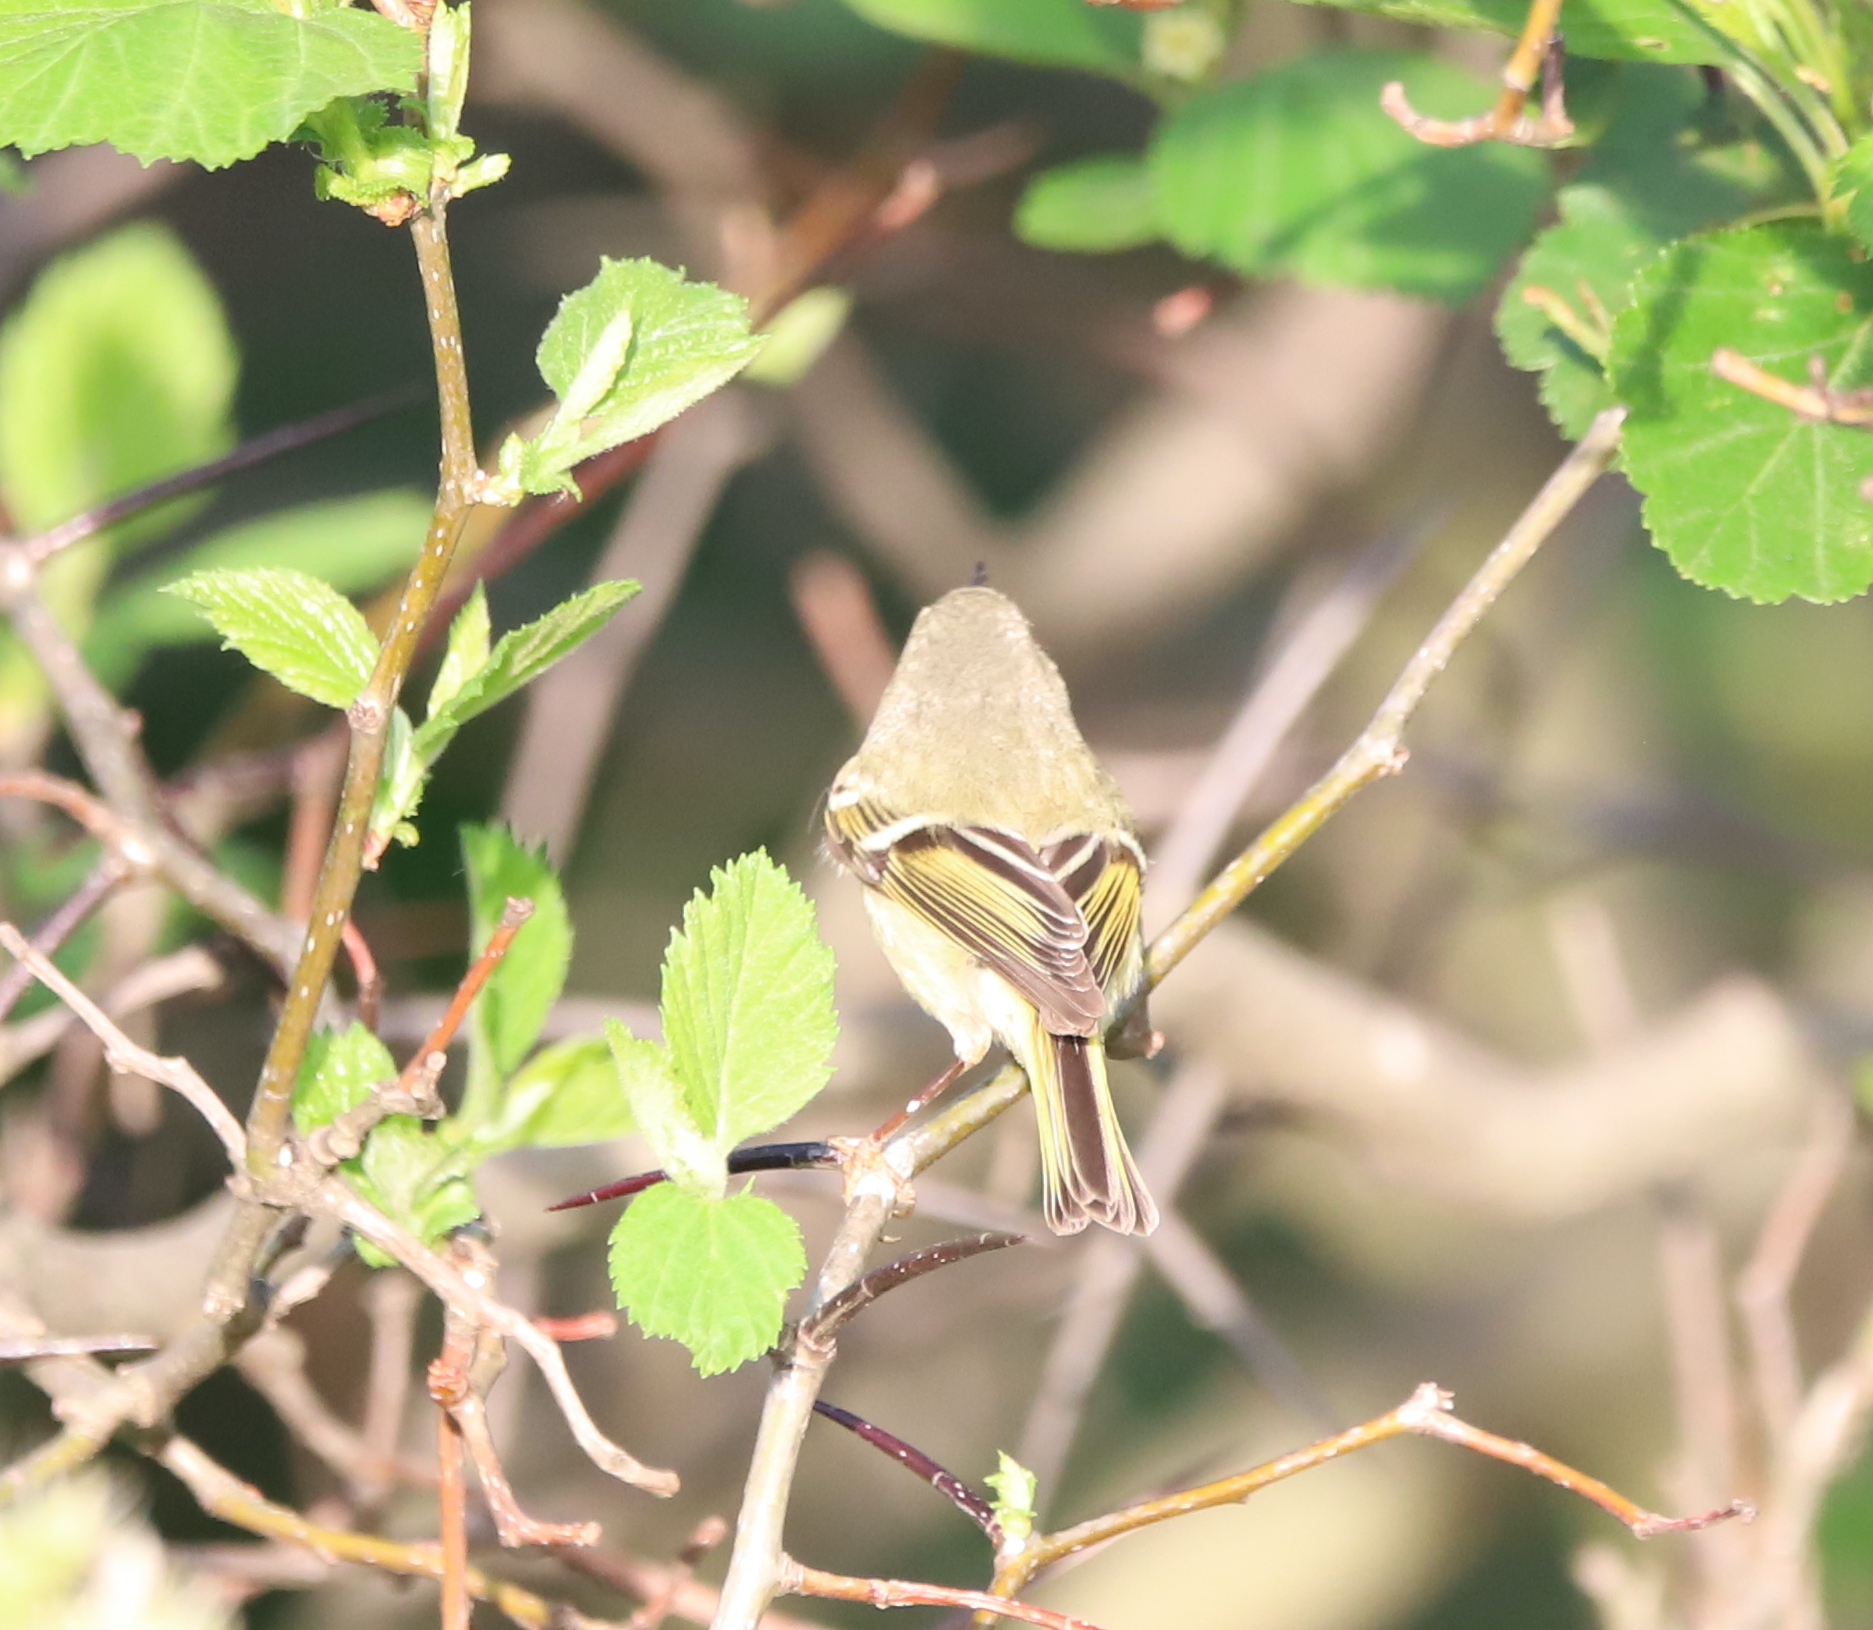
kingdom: Animalia
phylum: Chordata
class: Aves
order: Passeriformes
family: Regulidae
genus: Regulus
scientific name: Regulus calendula
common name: Ruby-crowned kinglet
